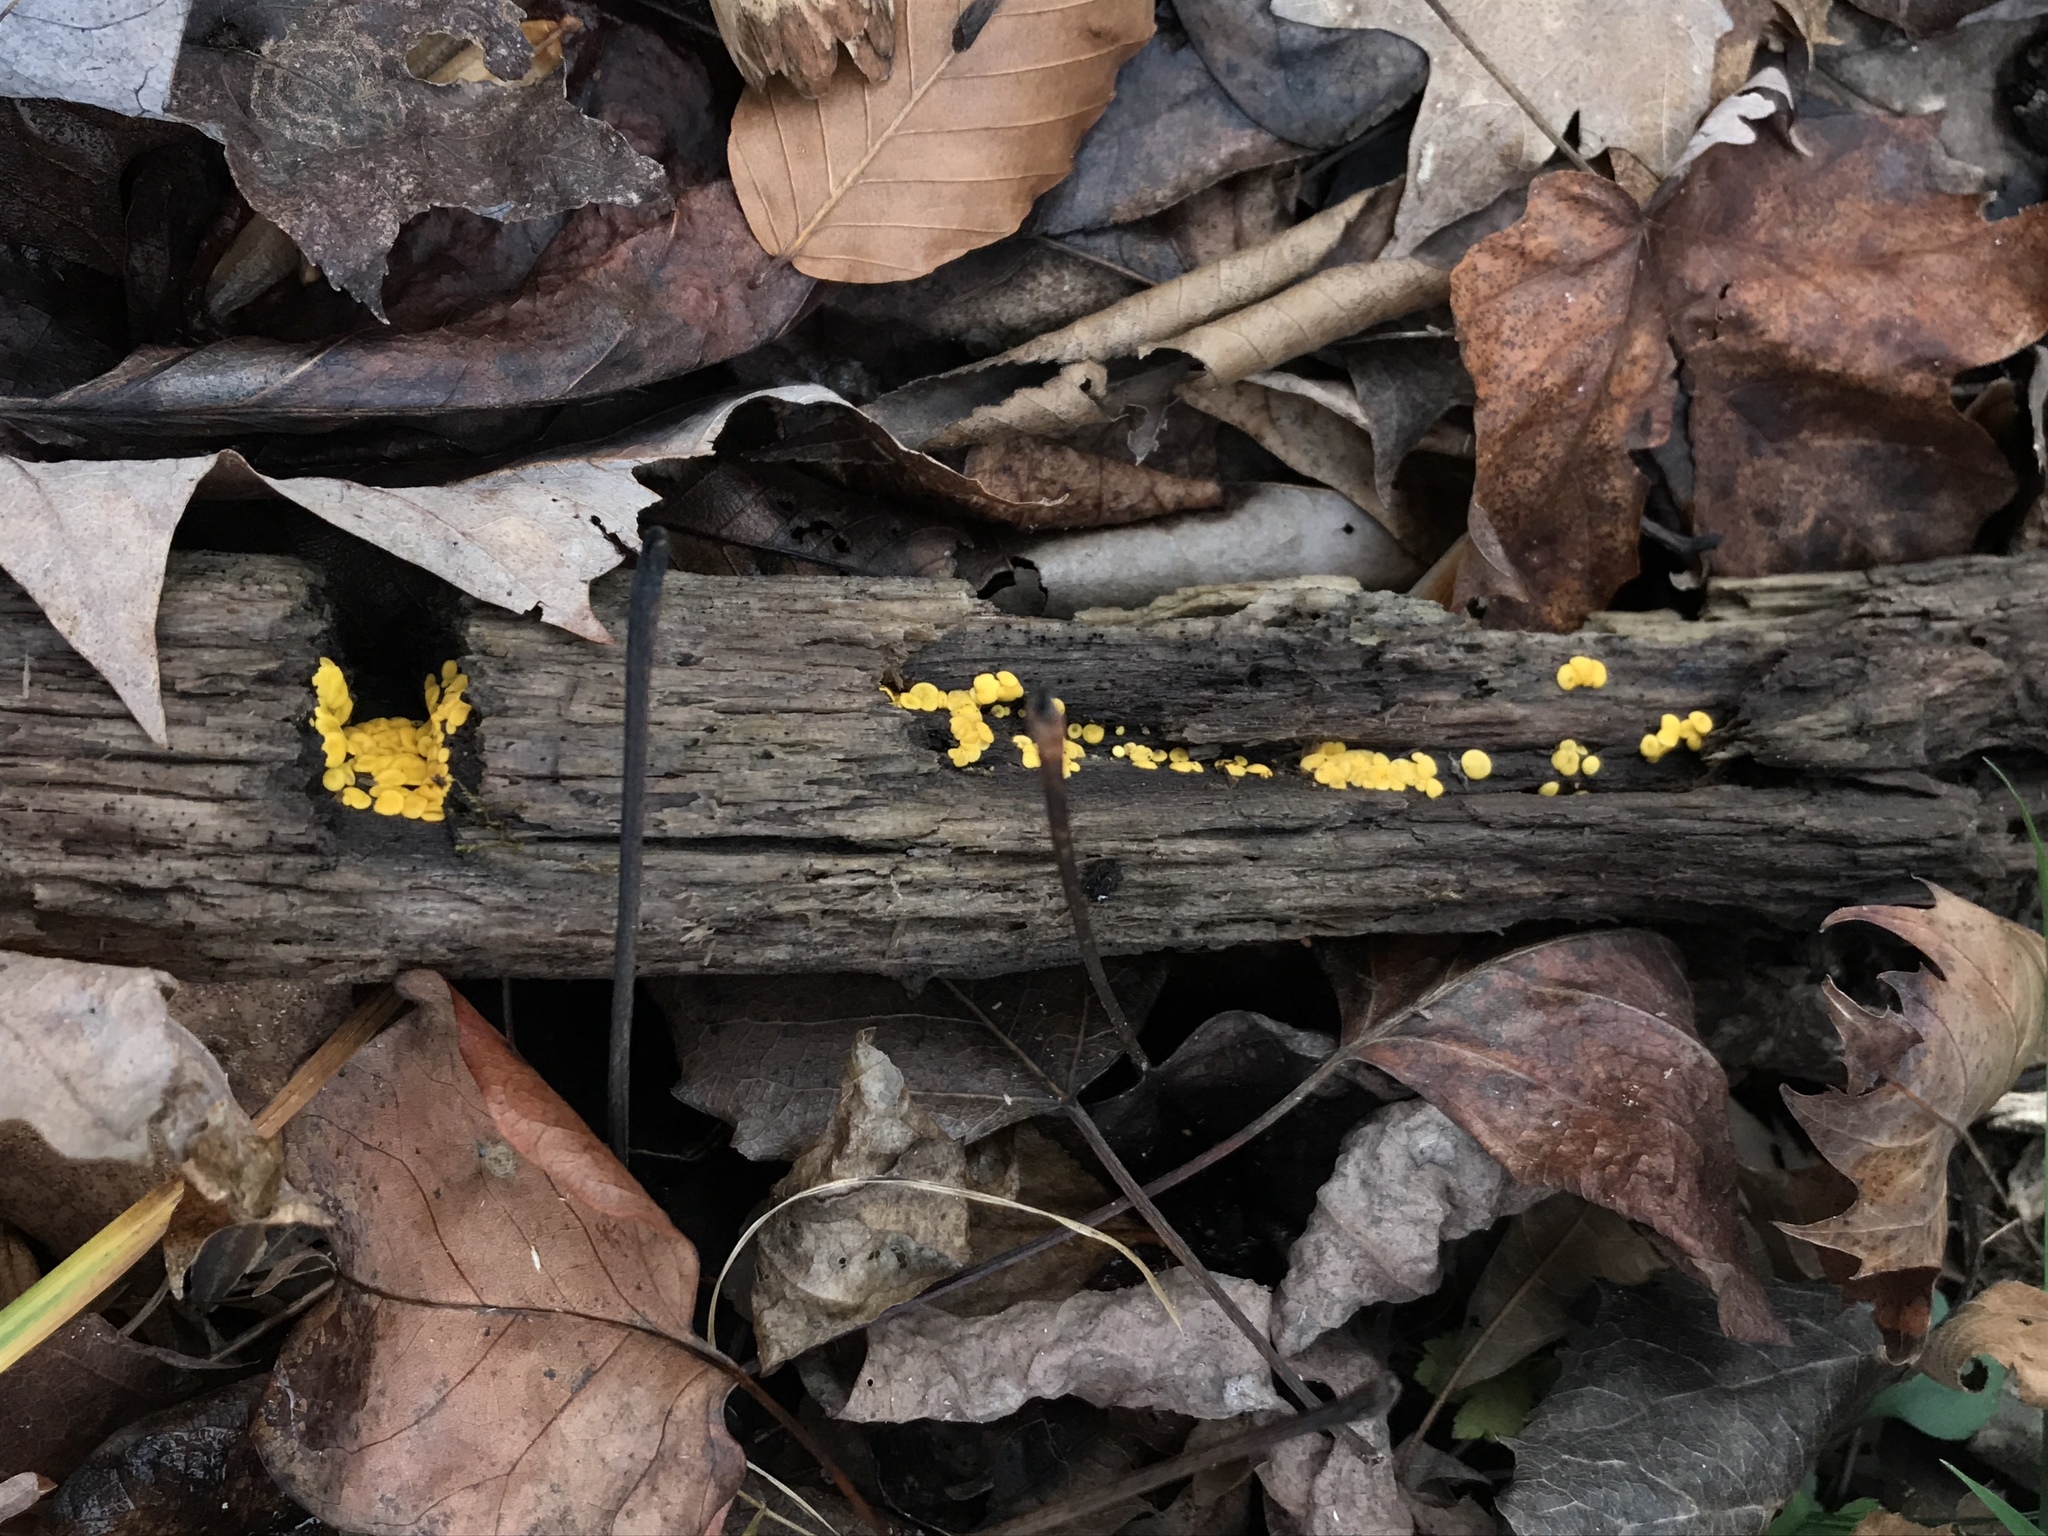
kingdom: Fungi
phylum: Ascomycota
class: Leotiomycetes
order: Helotiales
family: Pezizellaceae
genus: Calycina
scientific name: Calycina citrina
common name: Yellow fairy cups
